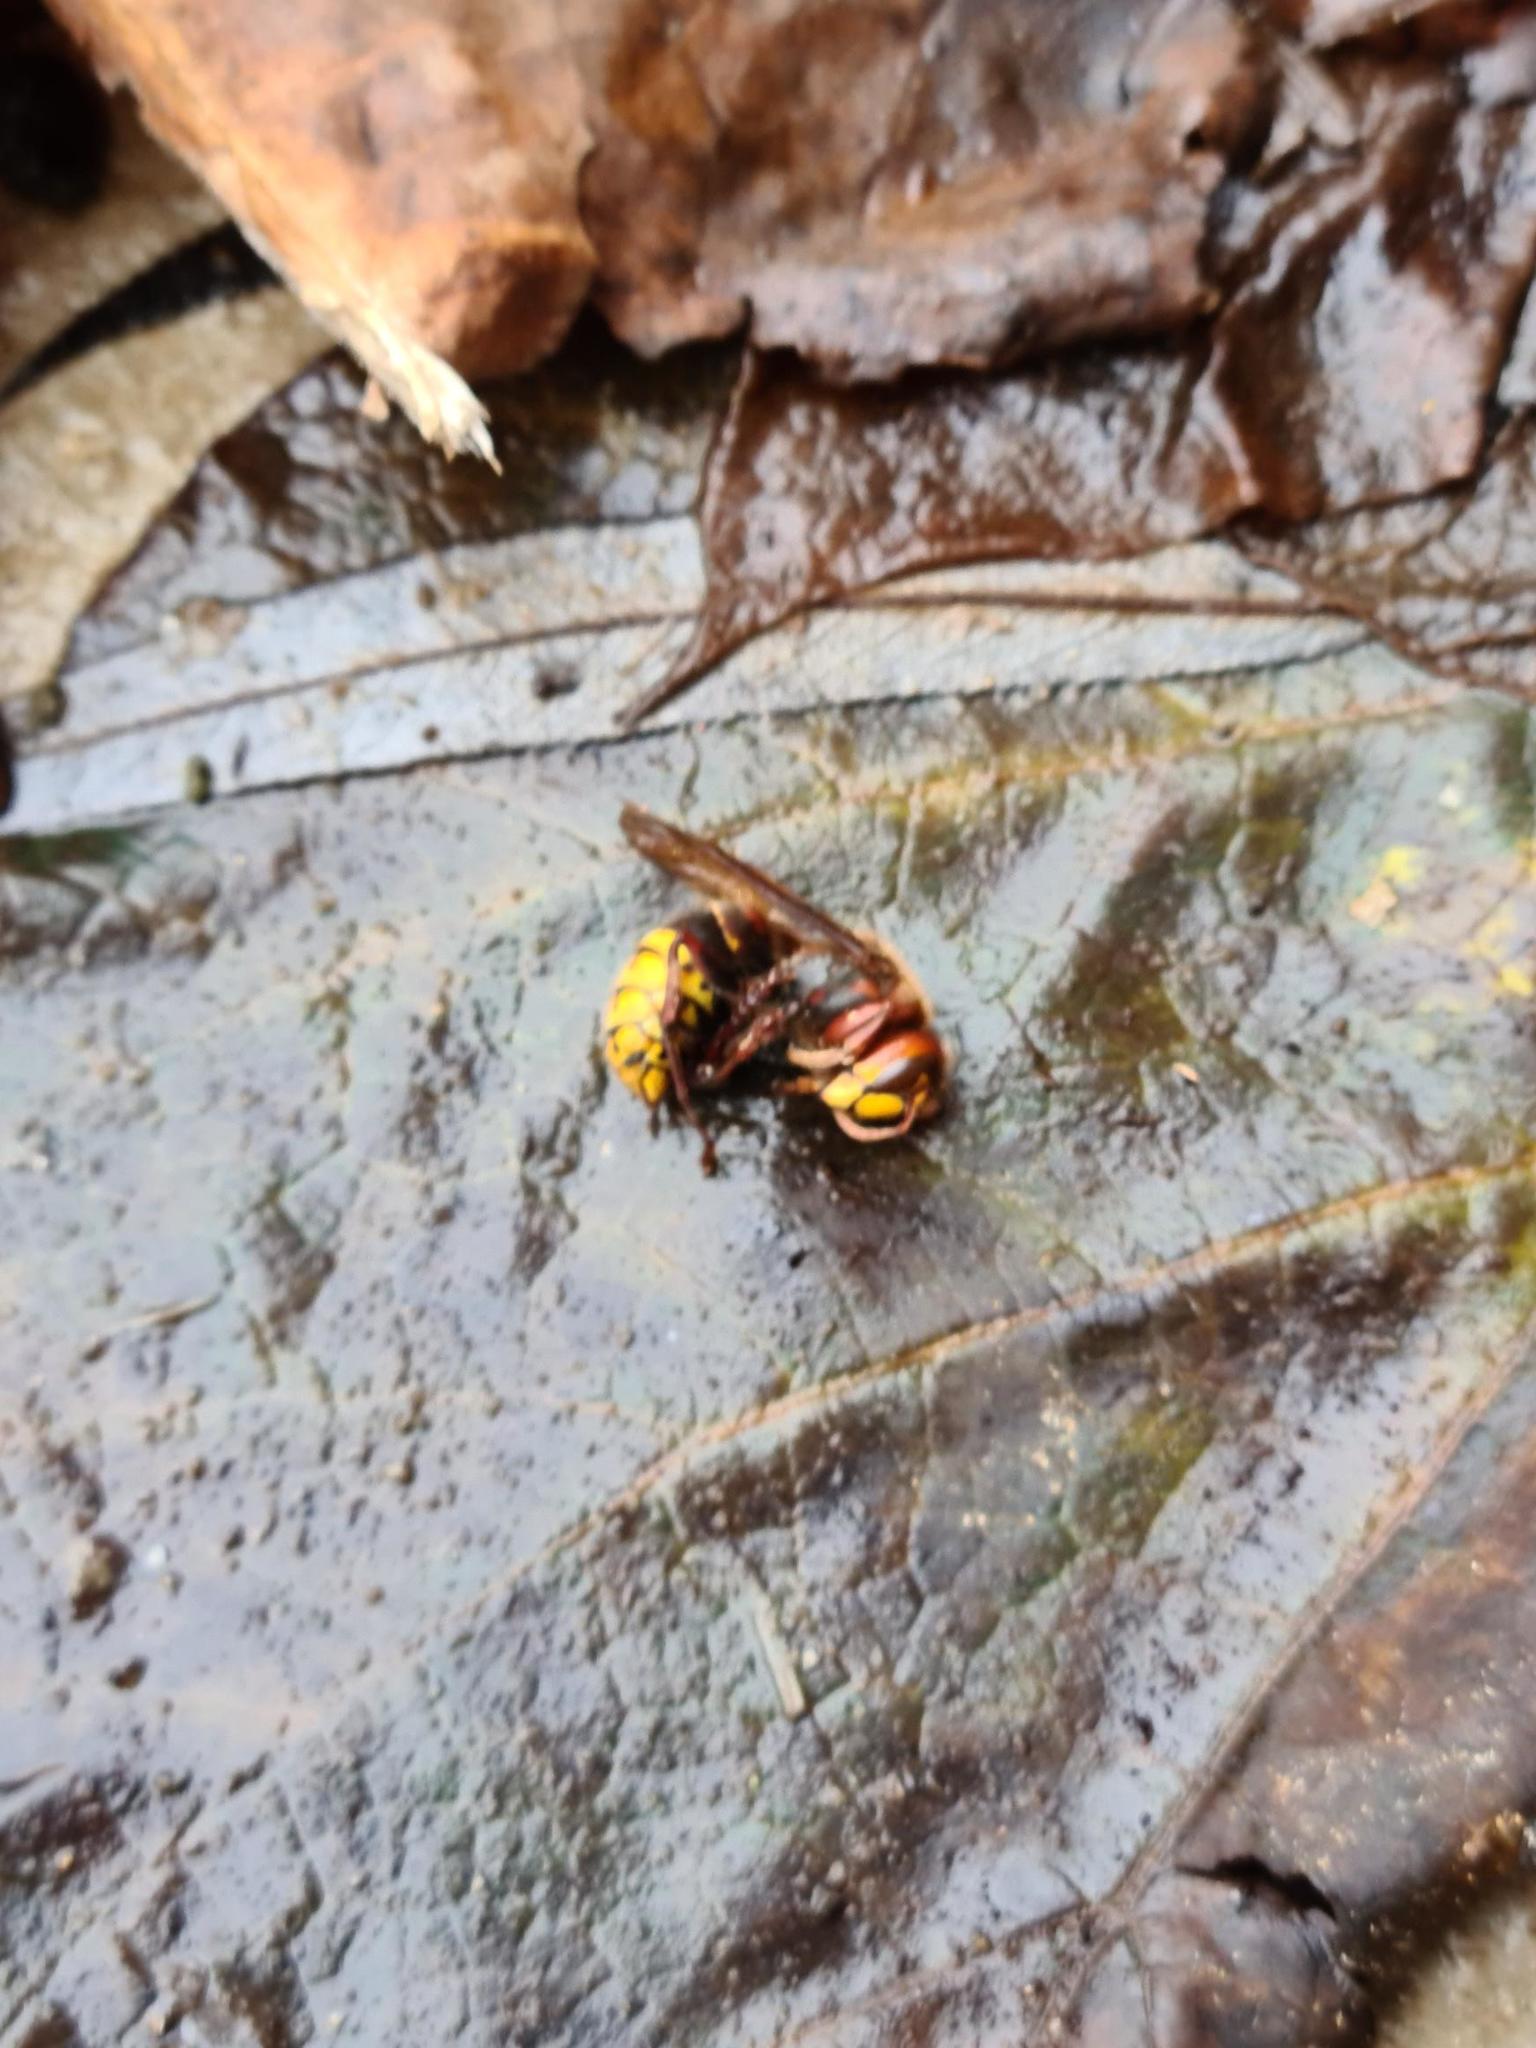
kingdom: Animalia
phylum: Arthropoda
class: Insecta
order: Hymenoptera
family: Vespidae
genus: Vespa
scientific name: Vespa crabro
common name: Hornet
